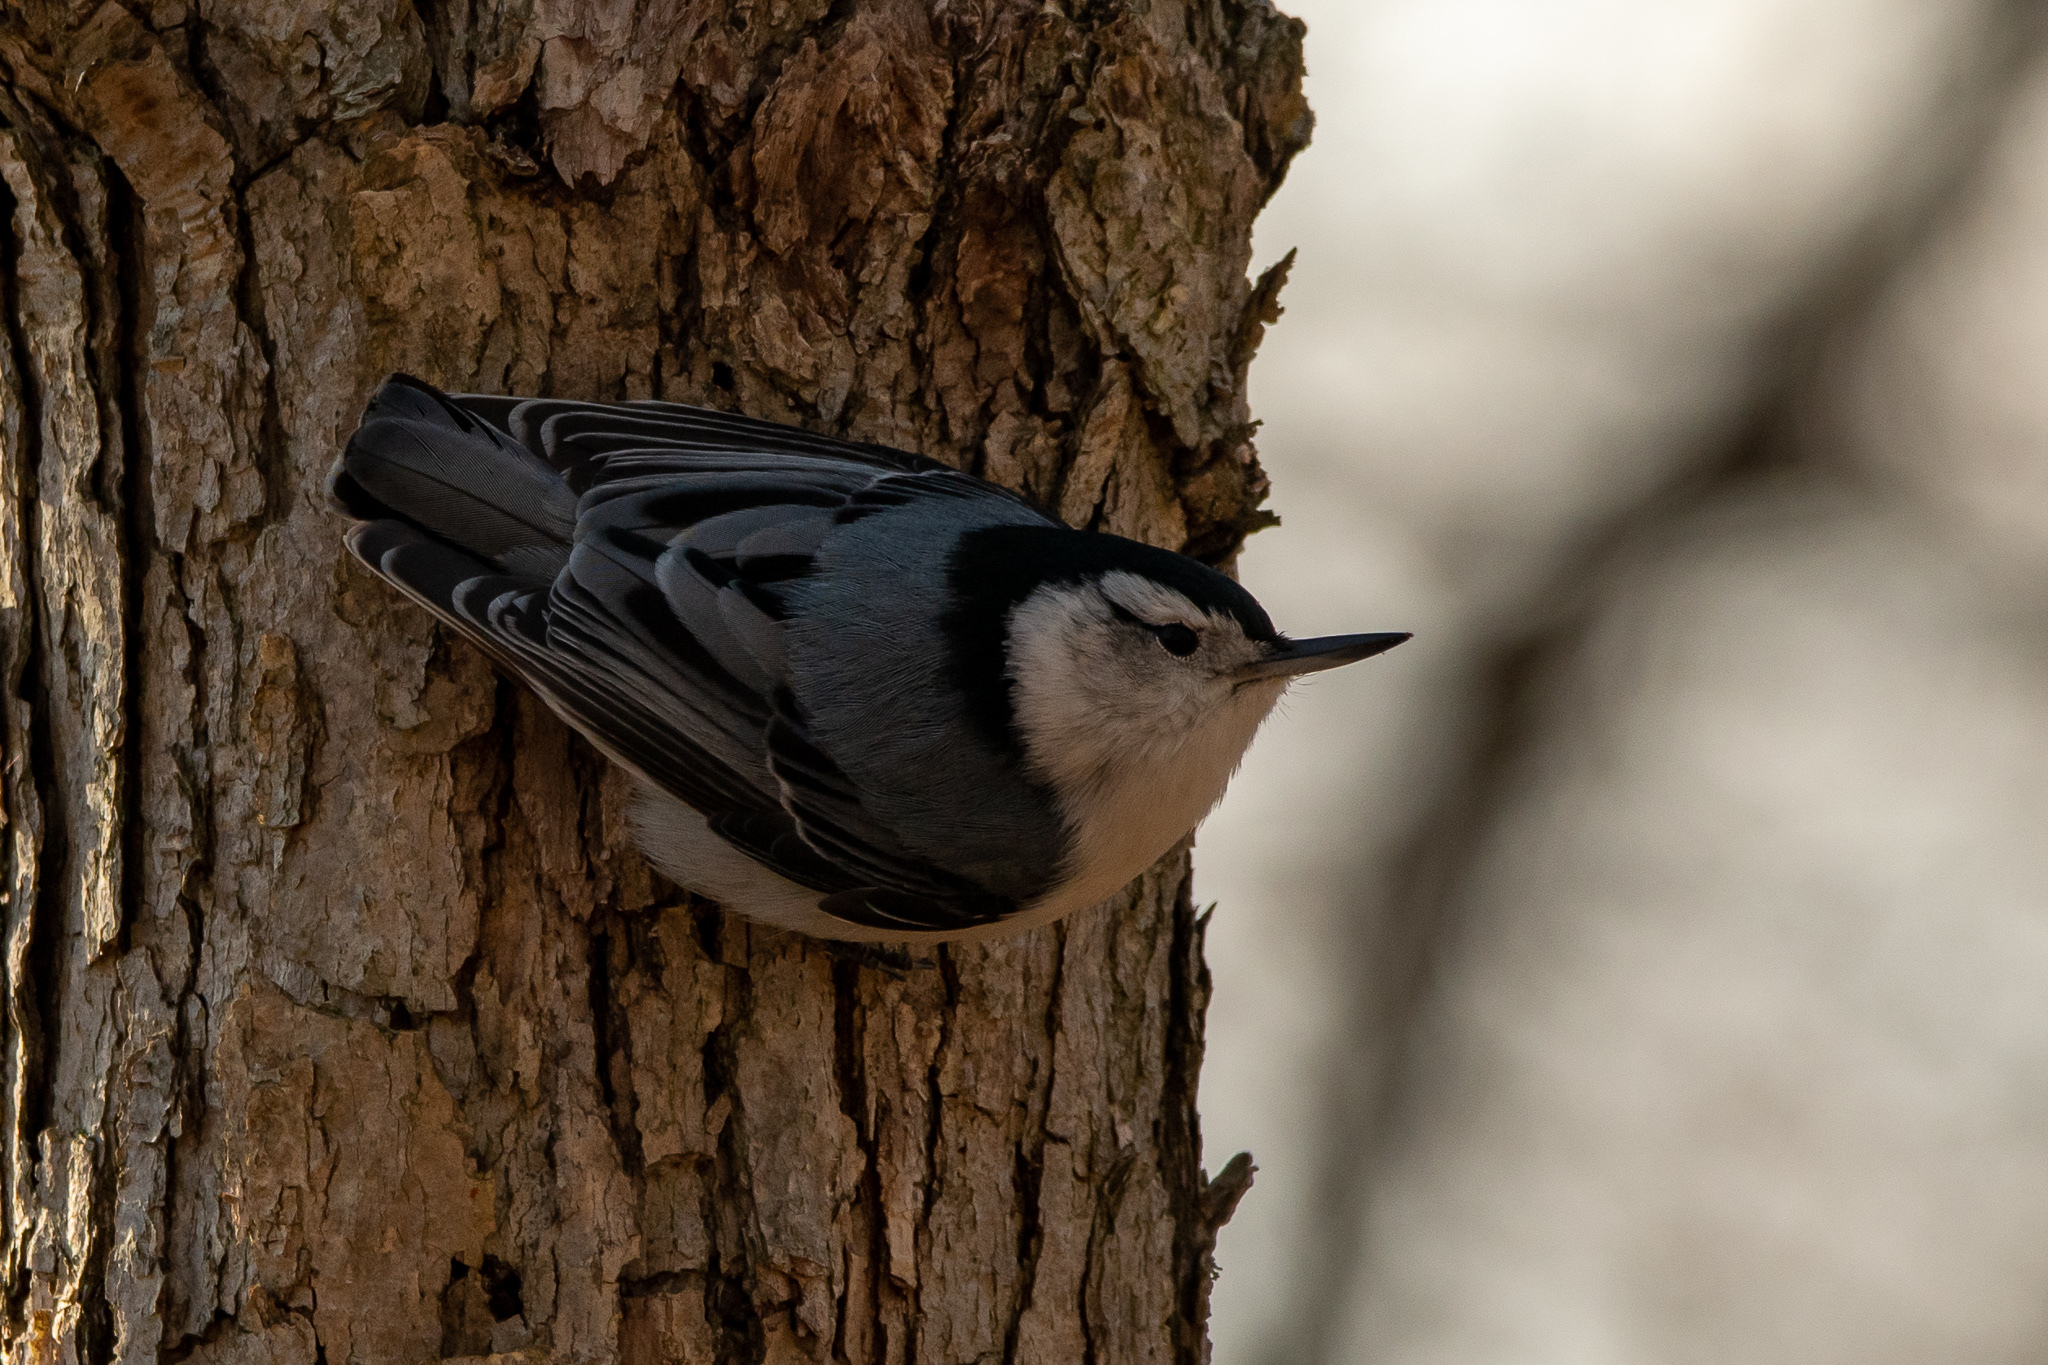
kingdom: Animalia
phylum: Chordata
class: Aves
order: Passeriformes
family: Sittidae
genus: Sitta
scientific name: Sitta carolinensis
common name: White-breasted nuthatch
